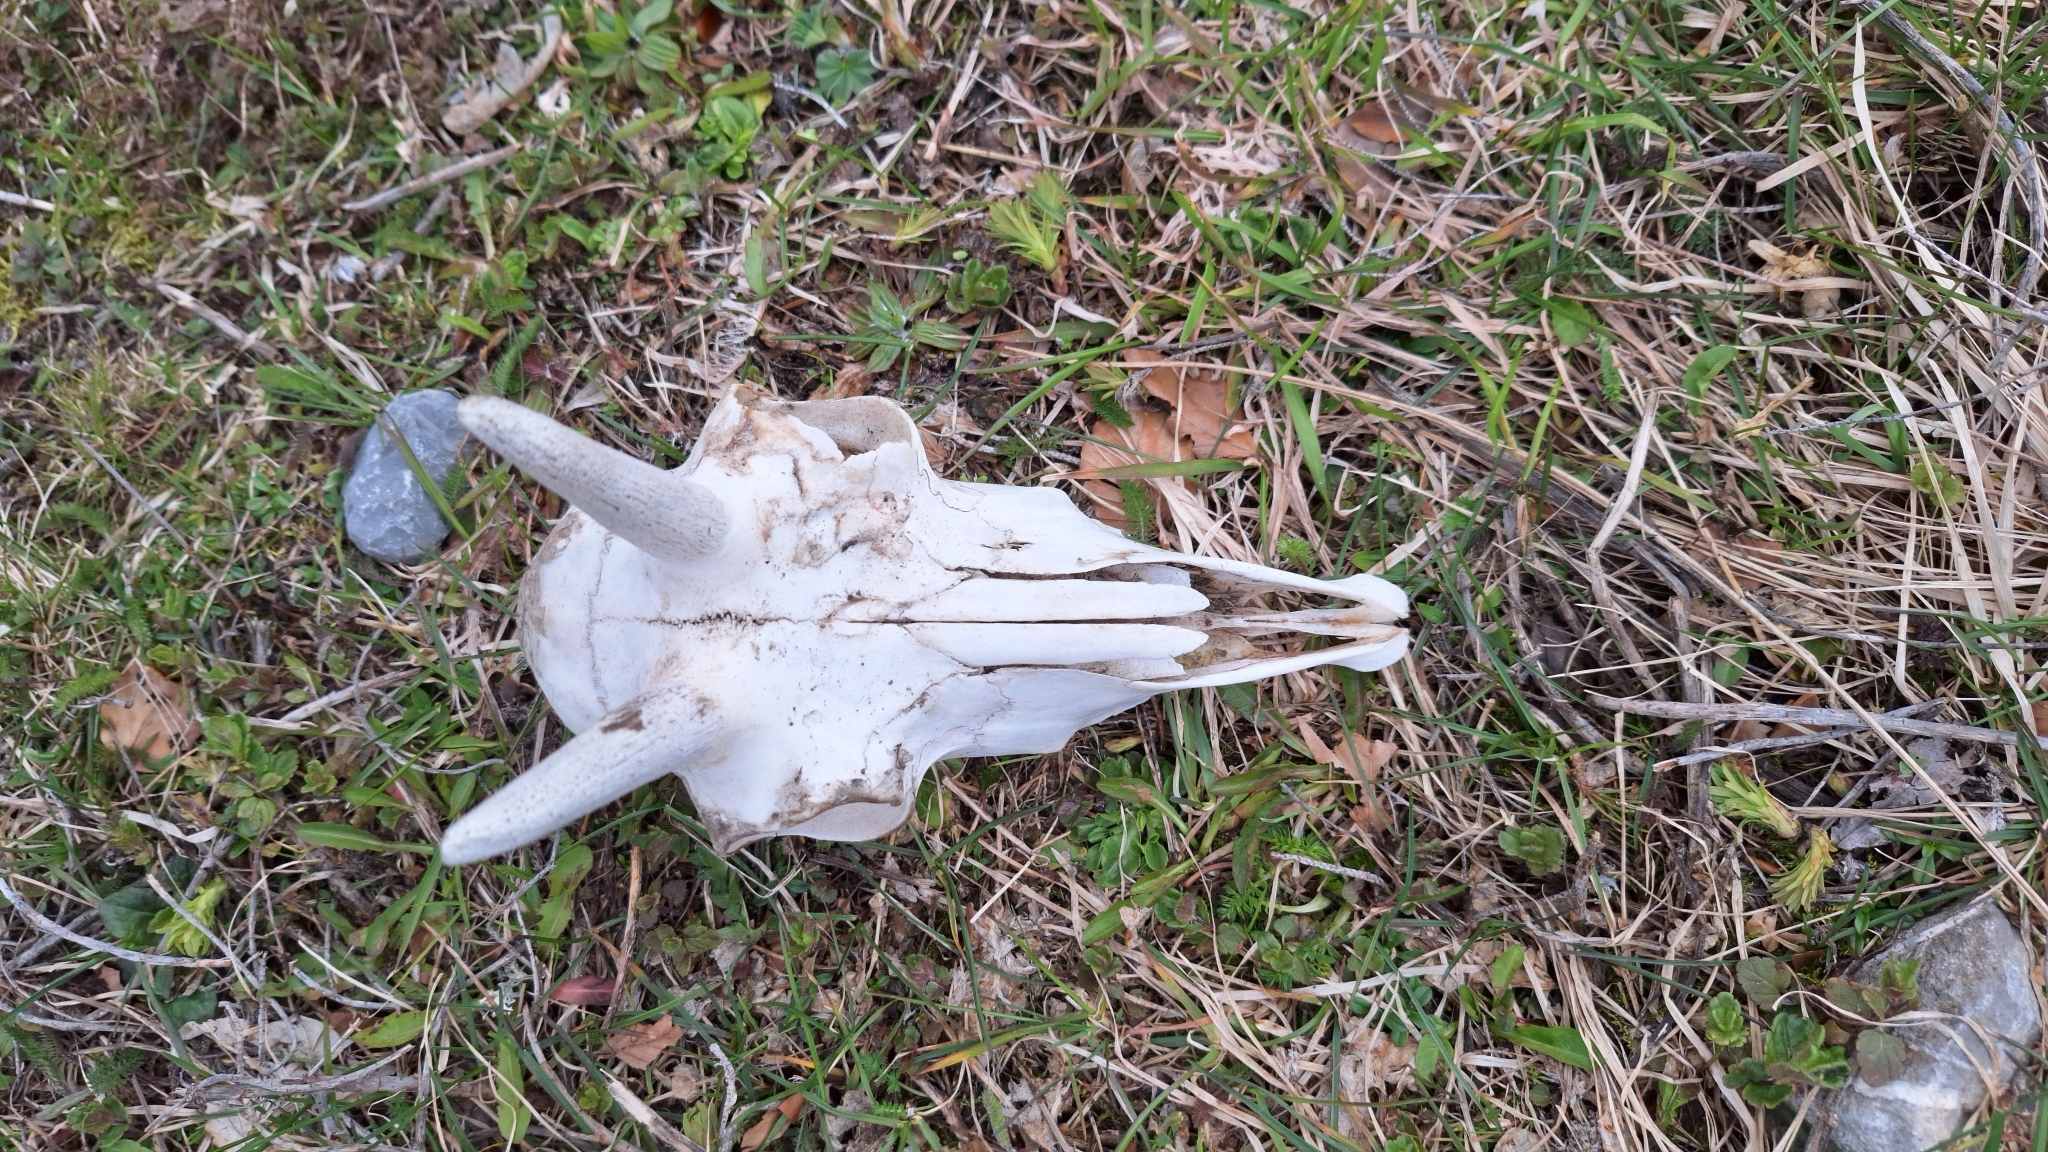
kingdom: Animalia
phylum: Chordata
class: Mammalia
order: Artiodactyla
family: Bovidae
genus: Rupicapra
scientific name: Rupicapra rupicapra
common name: Chamois
